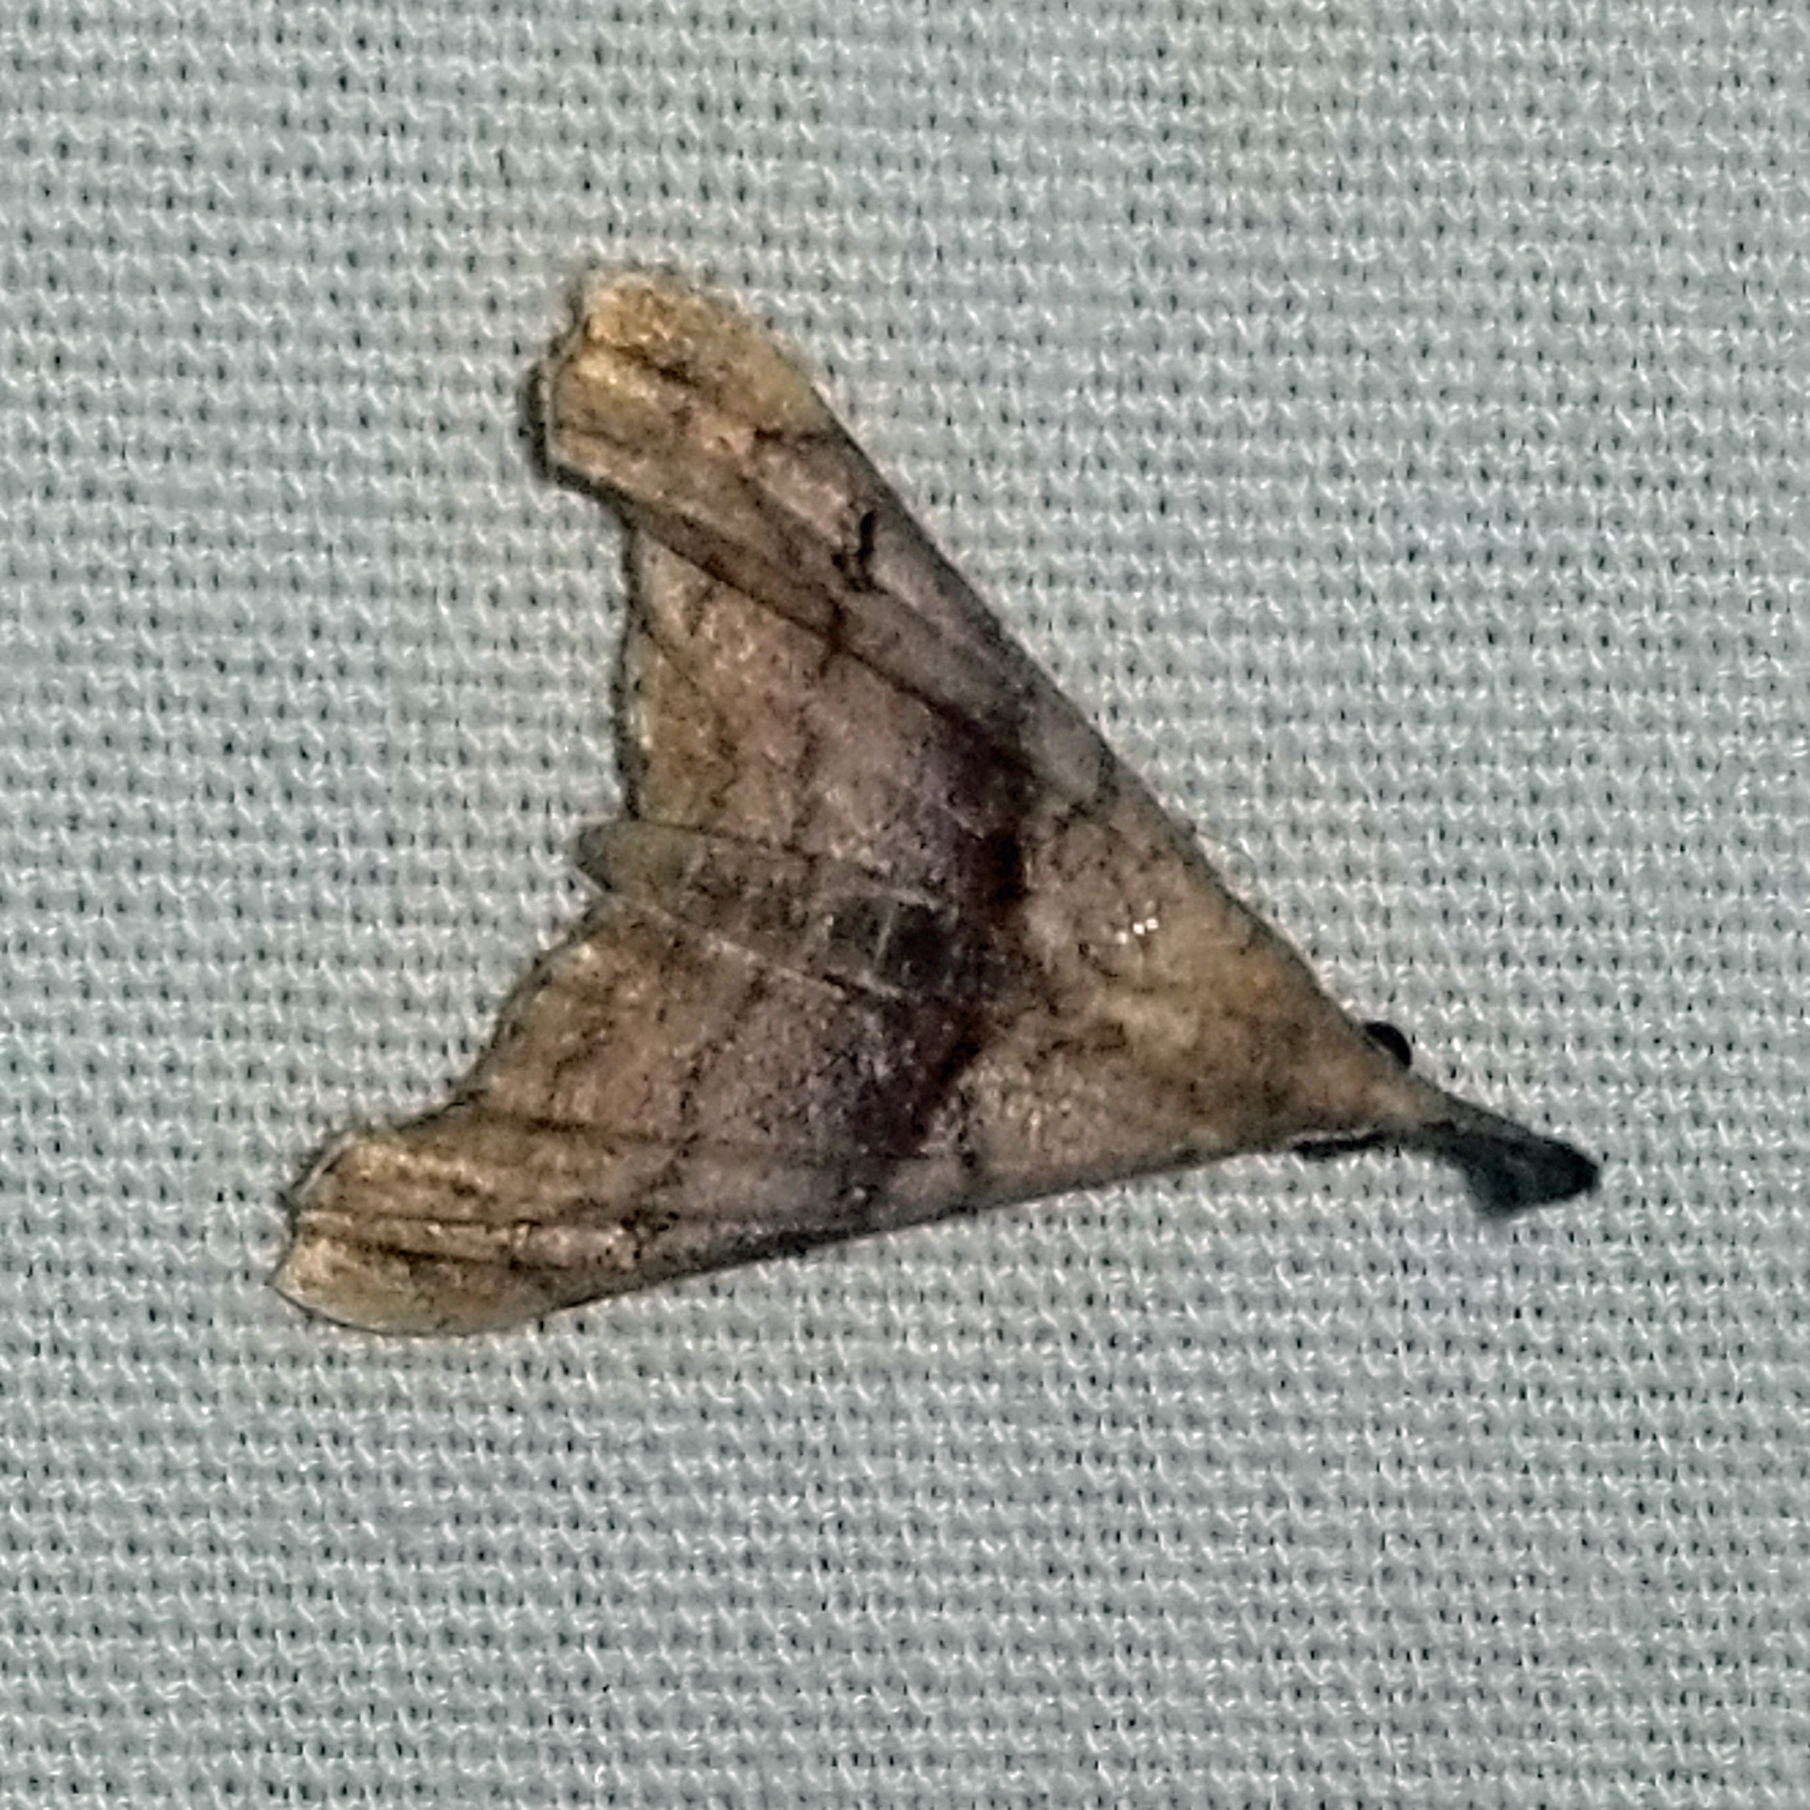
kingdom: Animalia
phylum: Arthropoda
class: Insecta
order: Lepidoptera
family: Erebidae
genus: Palthis
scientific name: Palthis angulalis
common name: Dark-spotted palthis moth
